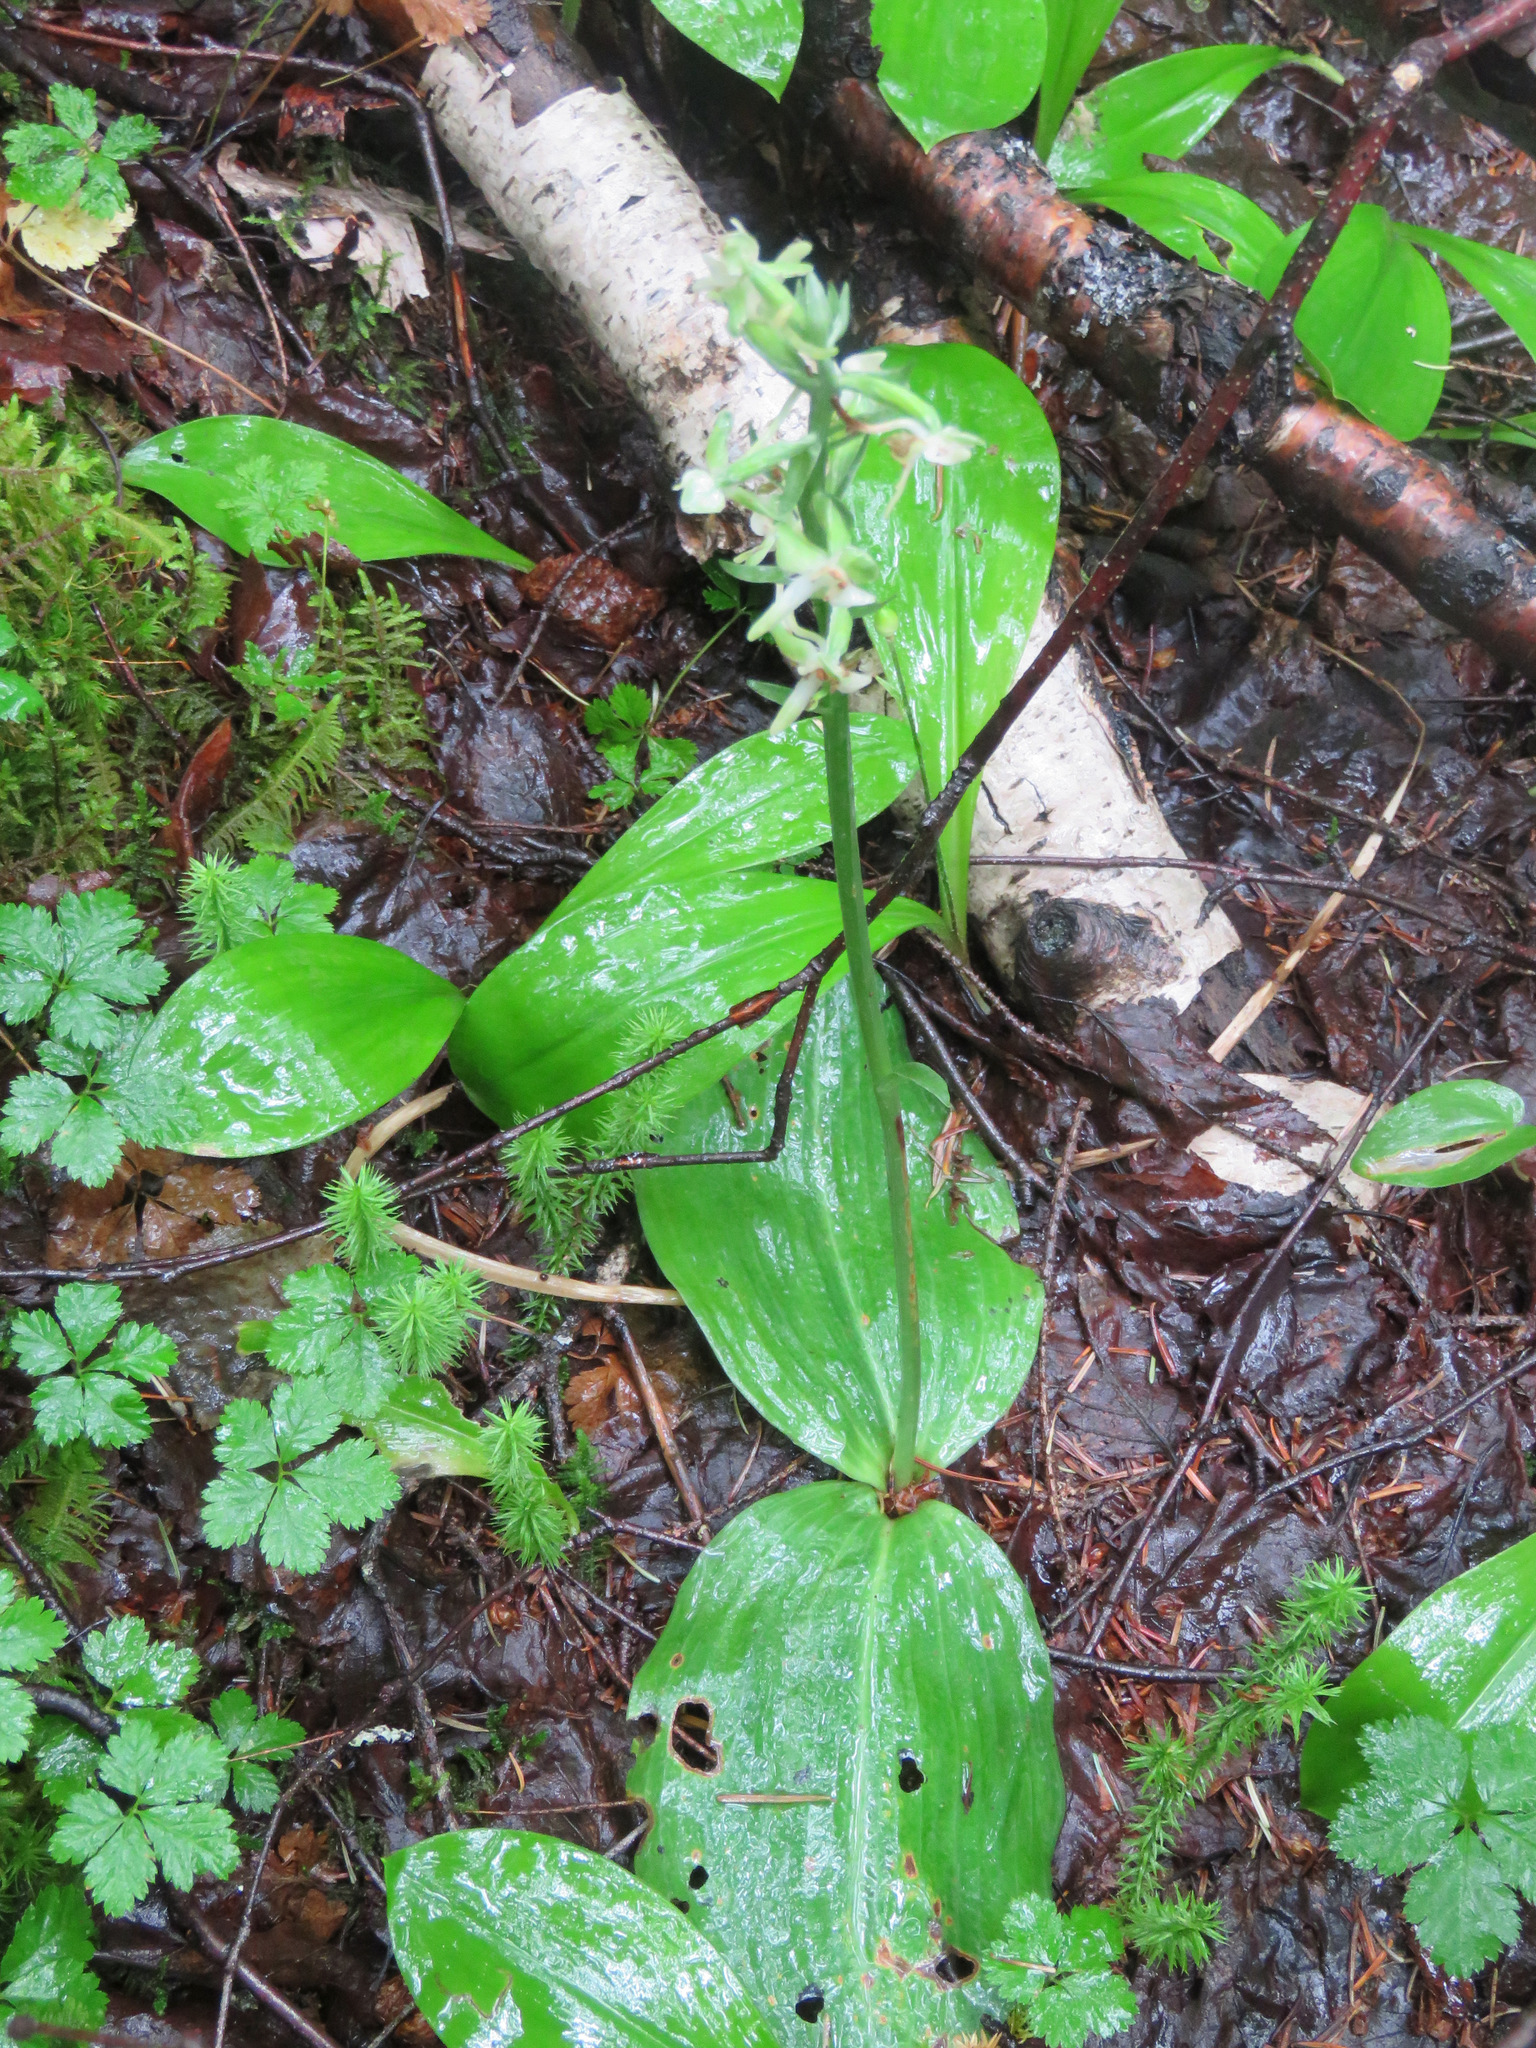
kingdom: Plantae
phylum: Tracheophyta
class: Liliopsida
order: Asparagales
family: Orchidaceae
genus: Platanthera
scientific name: Platanthera orbiculata
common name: Large round-leaved orchid
